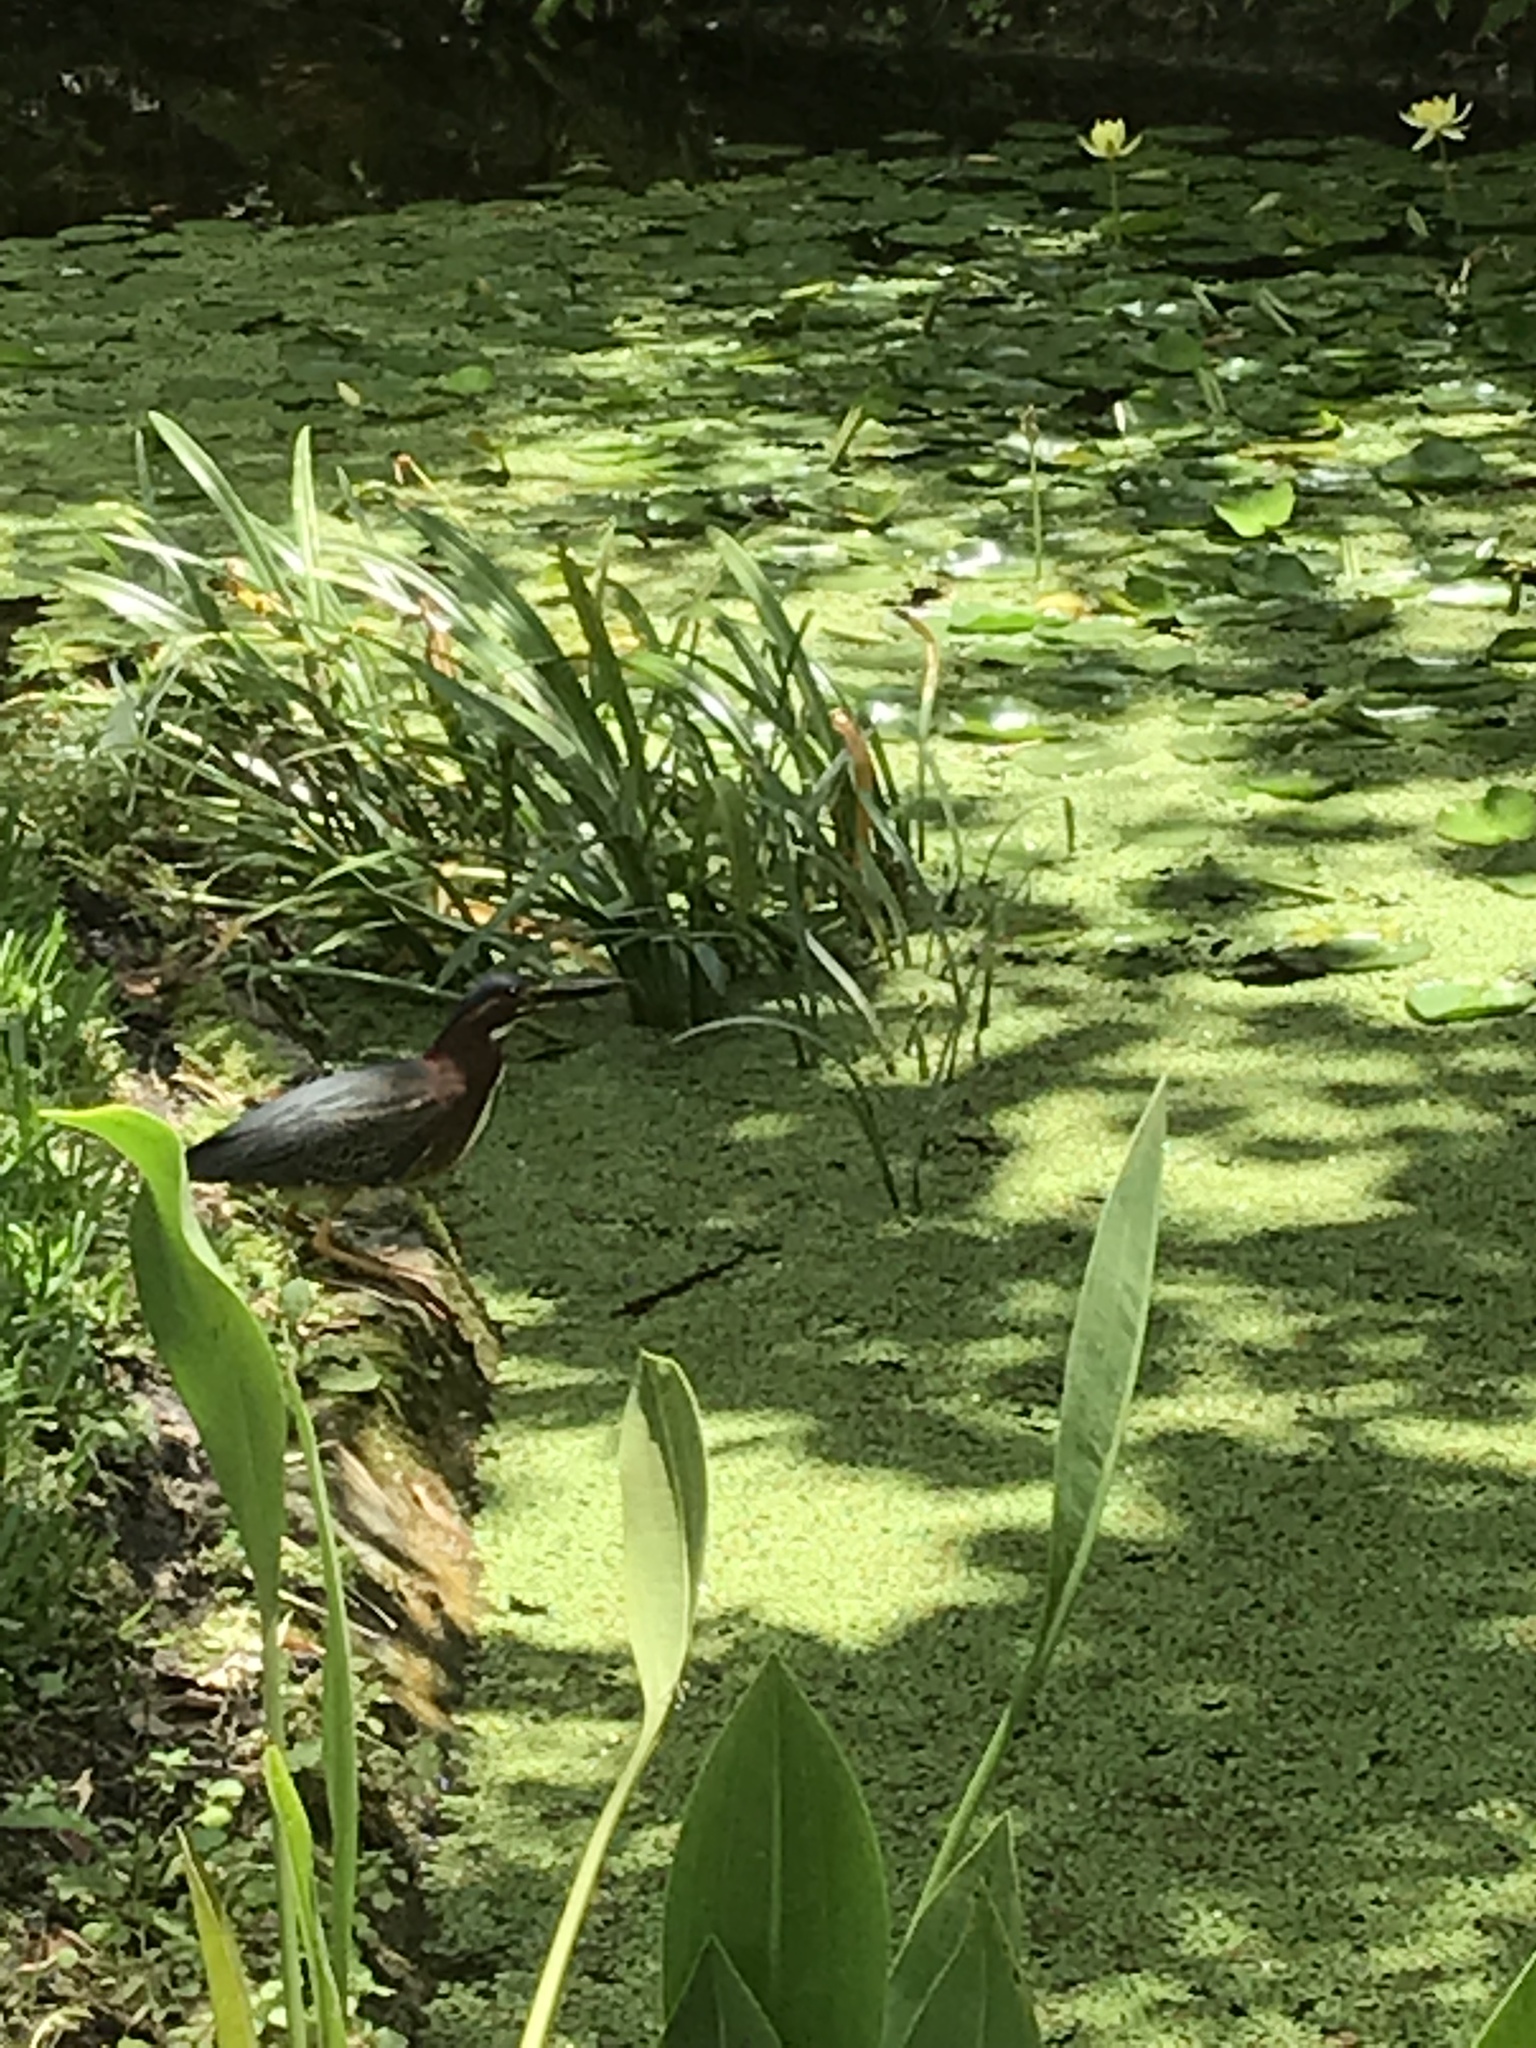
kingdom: Animalia
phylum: Chordata
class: Aves
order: Pelecaniformes
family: Ardeidae
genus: Butorides
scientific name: Butorides virescens
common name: Green heron
